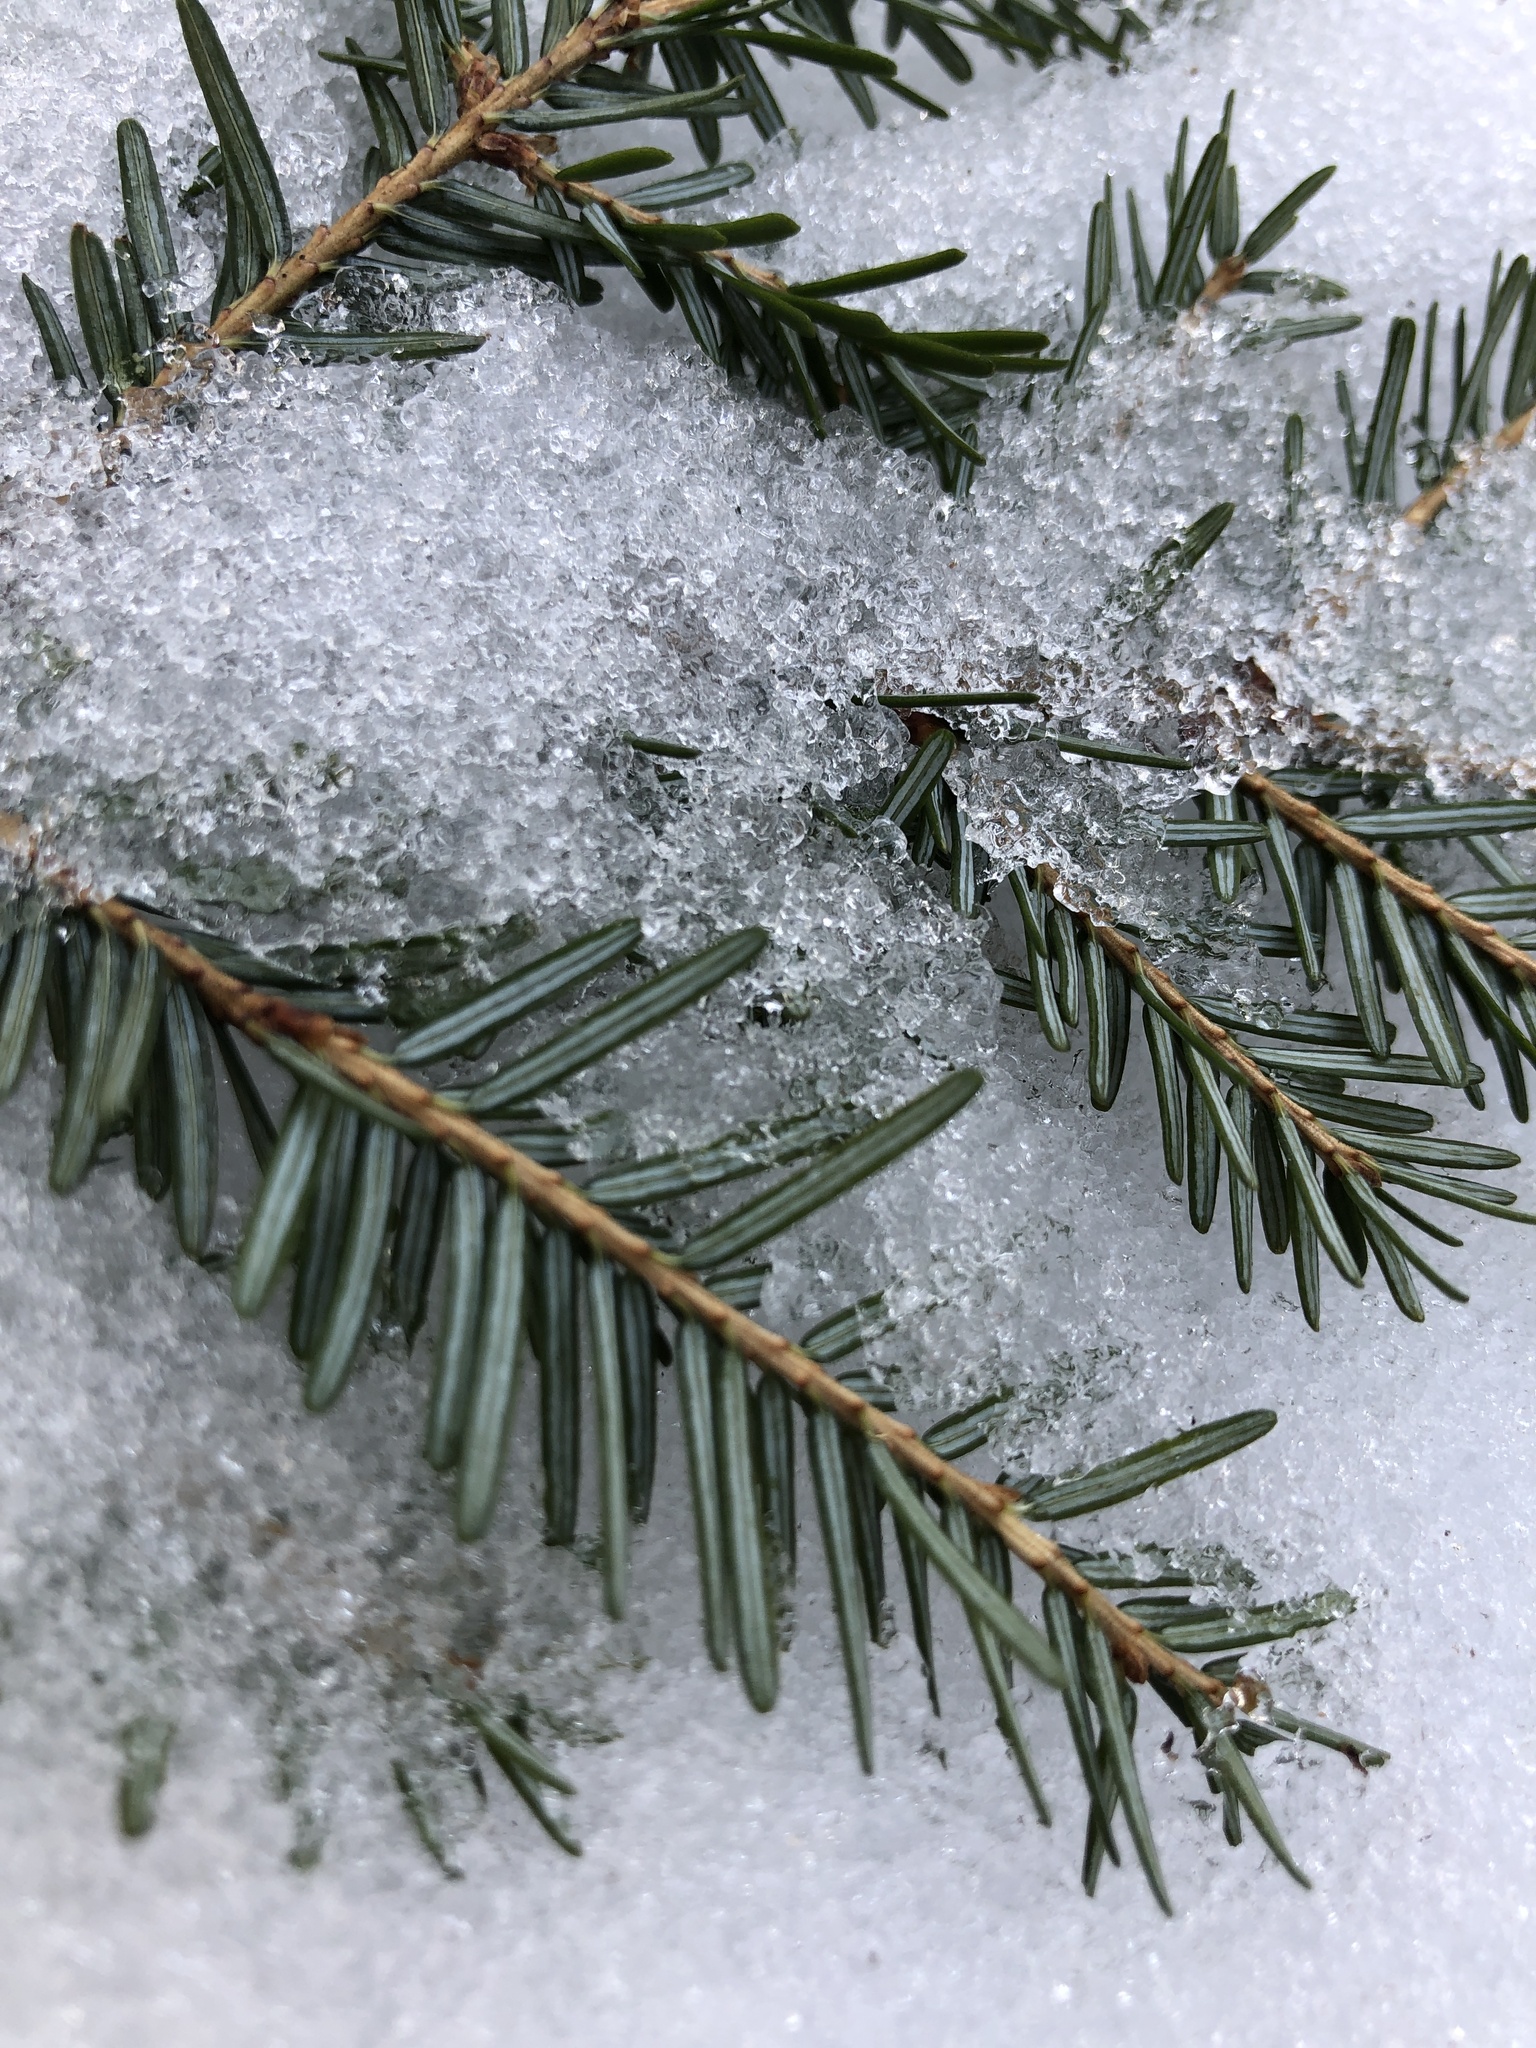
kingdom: Plantae
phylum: Tracheophyta
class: Pinopsida
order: Pinales
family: Pinaceae
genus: Tsuga
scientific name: Tsuga canadensis
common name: Eastern hemlock
